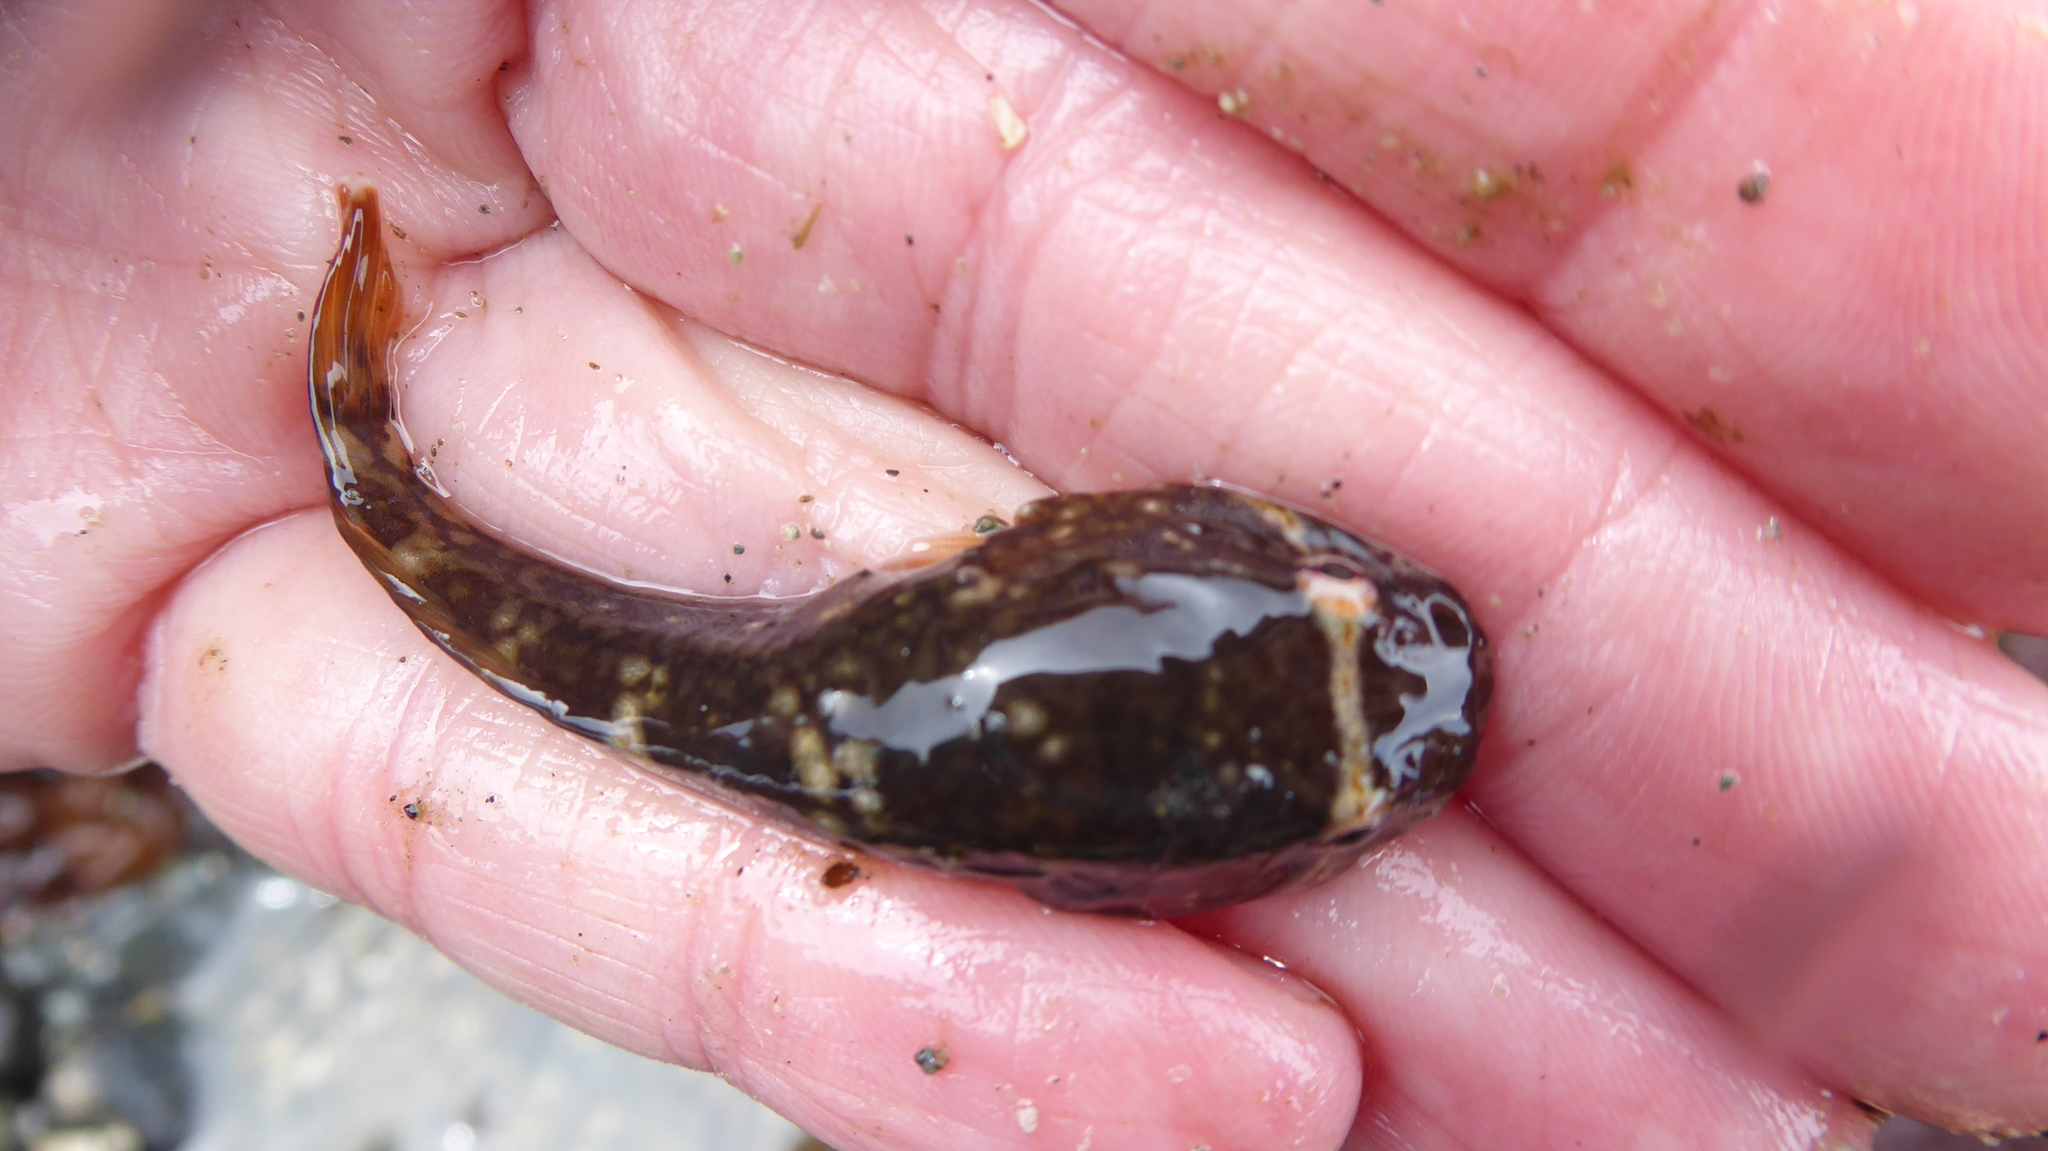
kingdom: Animalia
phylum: Chordata
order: Gobiesociformes
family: Gobiesocidae
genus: Gobiesox
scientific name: Gobiesox maeandricus
